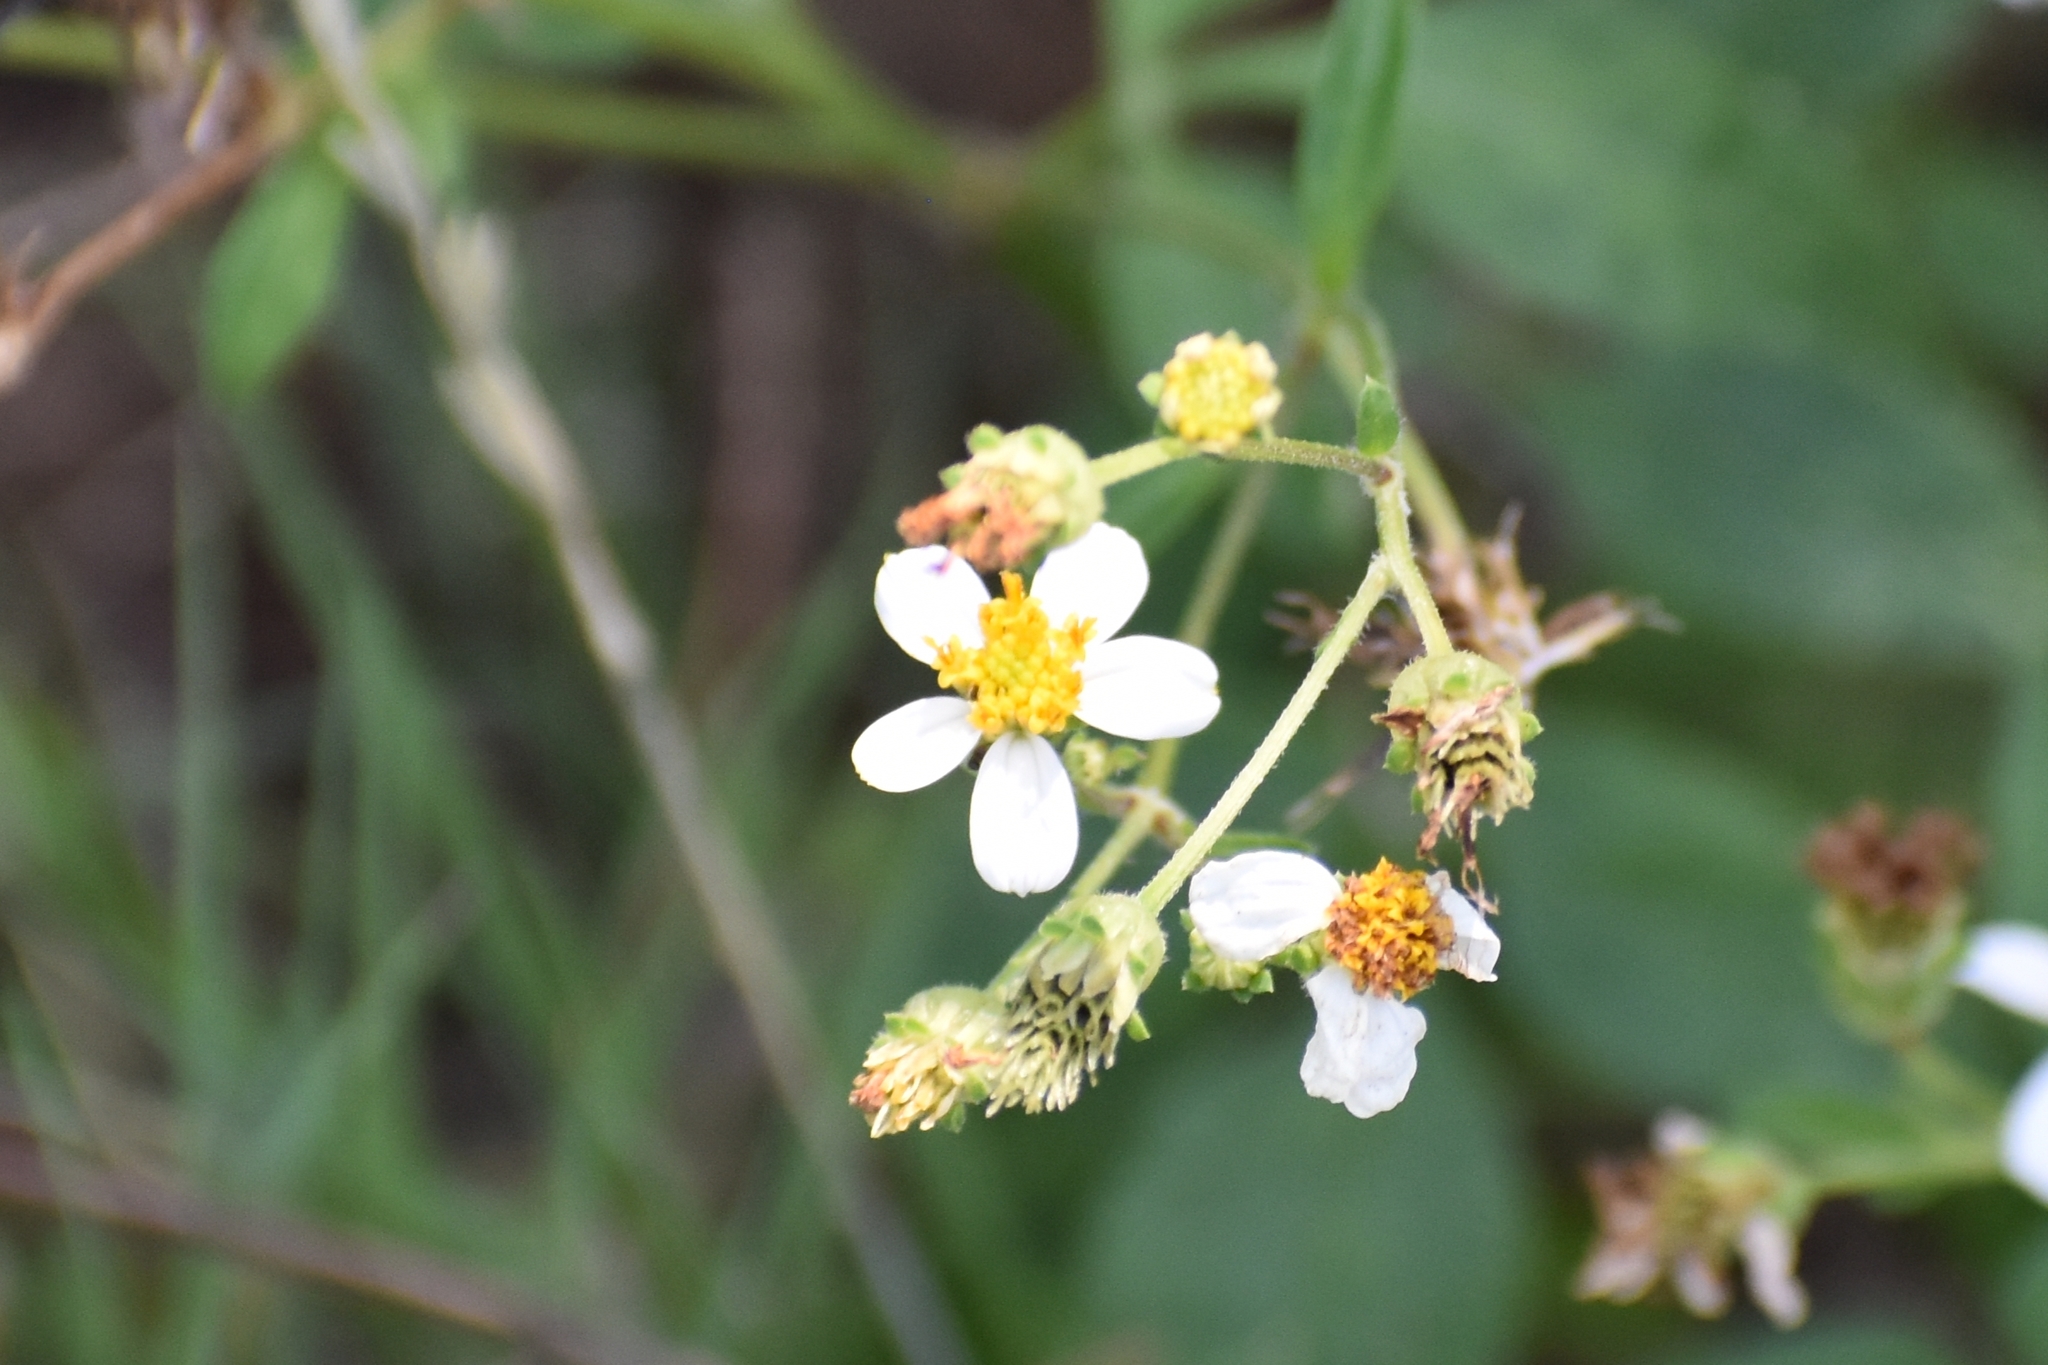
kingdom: Plantae
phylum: Tracheophyta
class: Magnoliopsida
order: Asterales
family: Asteraceae
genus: Bidens
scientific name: Bidens alba
